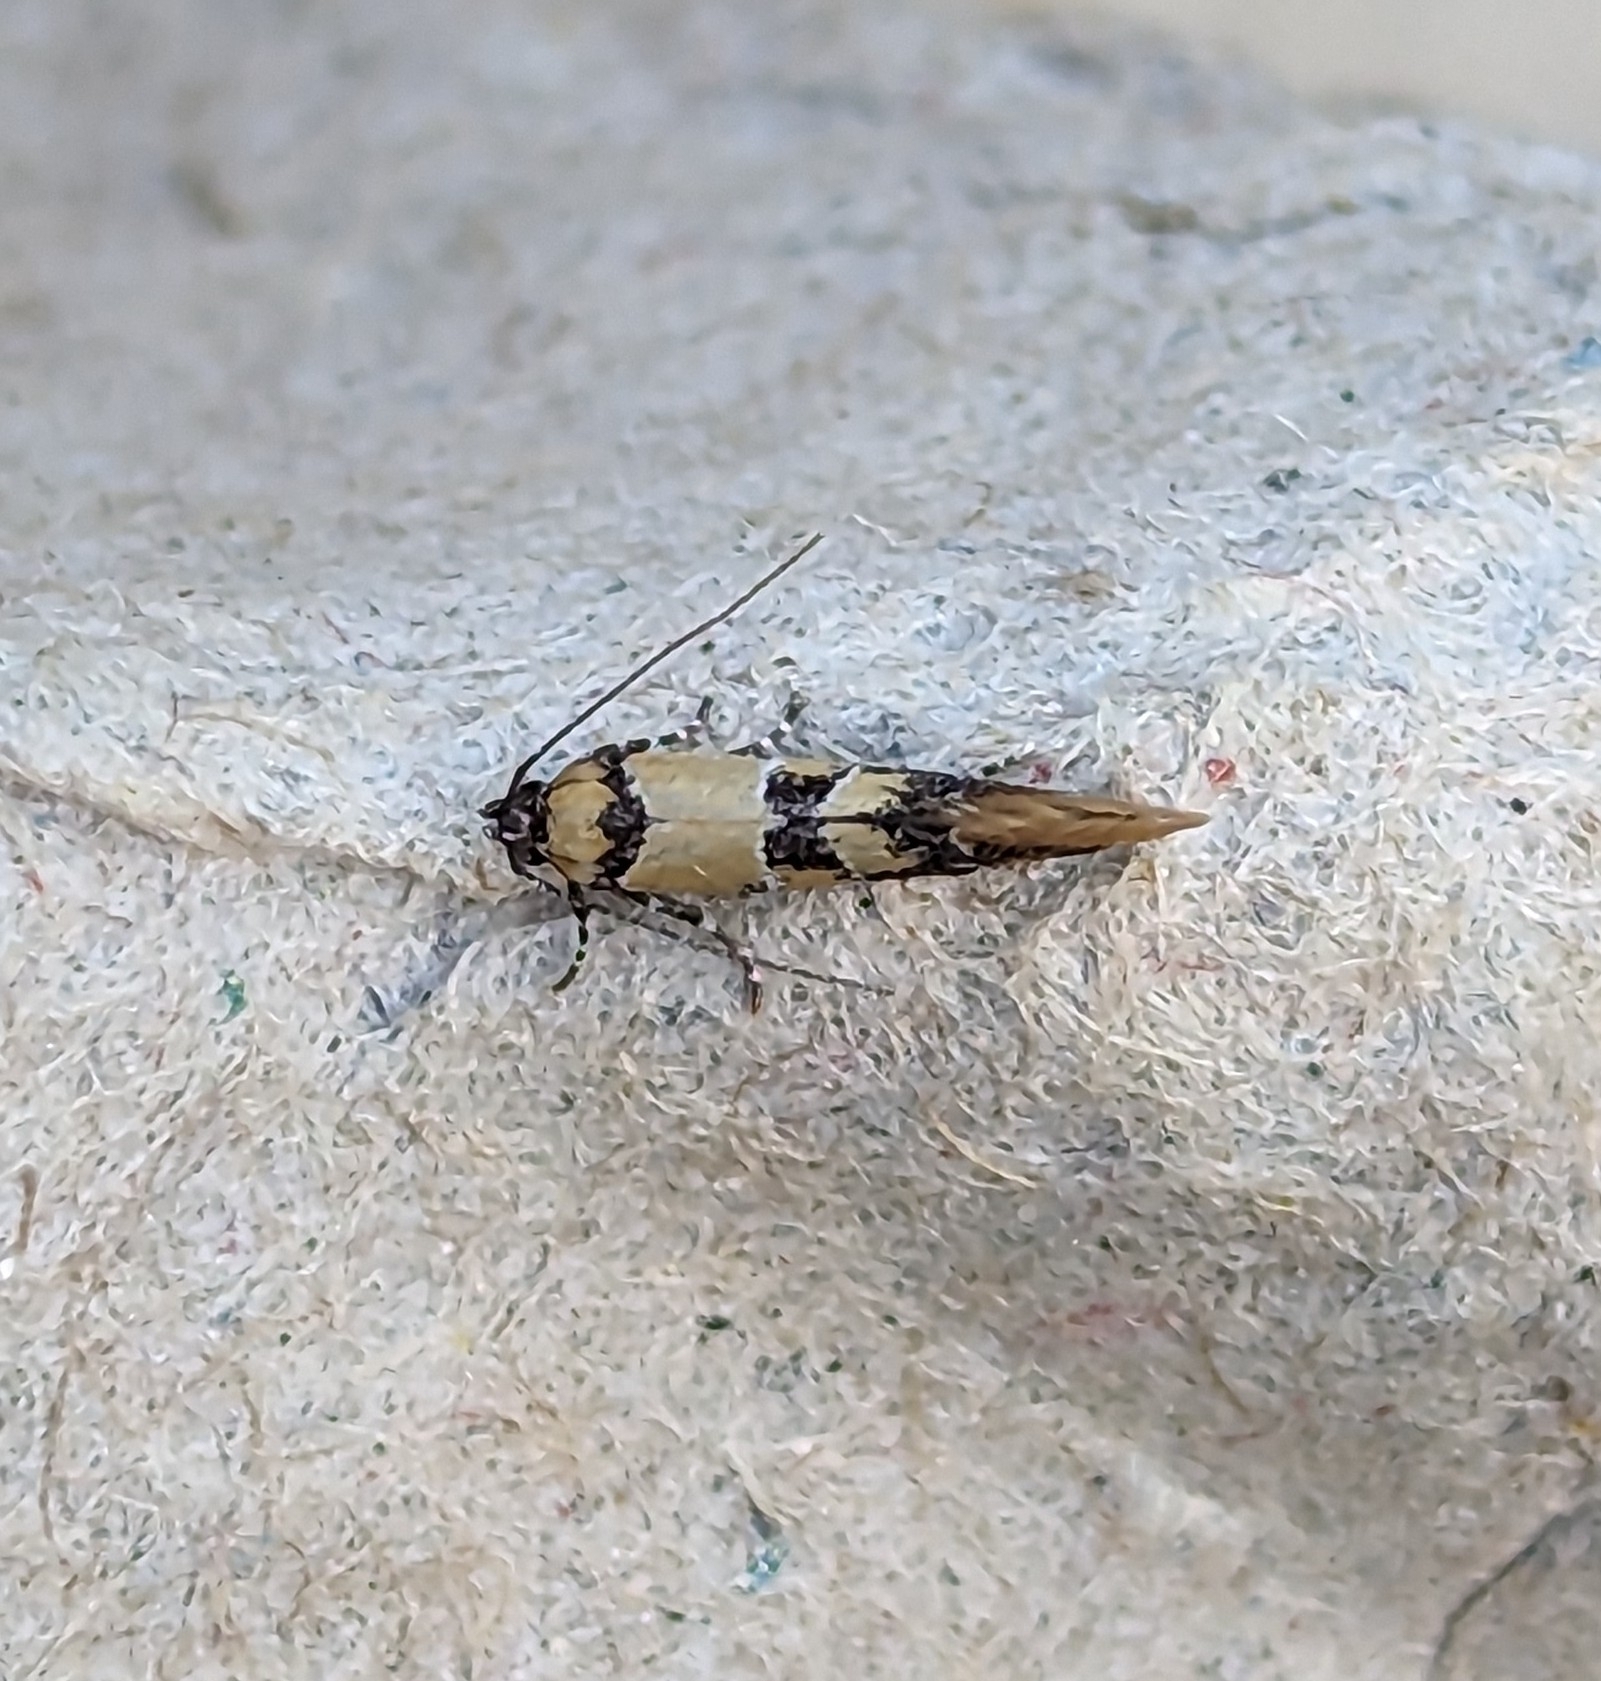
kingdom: Animalia
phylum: Arthropoda
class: Insecta
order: Lepidoptera
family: Oecophoridae
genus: Decantha
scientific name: Decantha tistra
